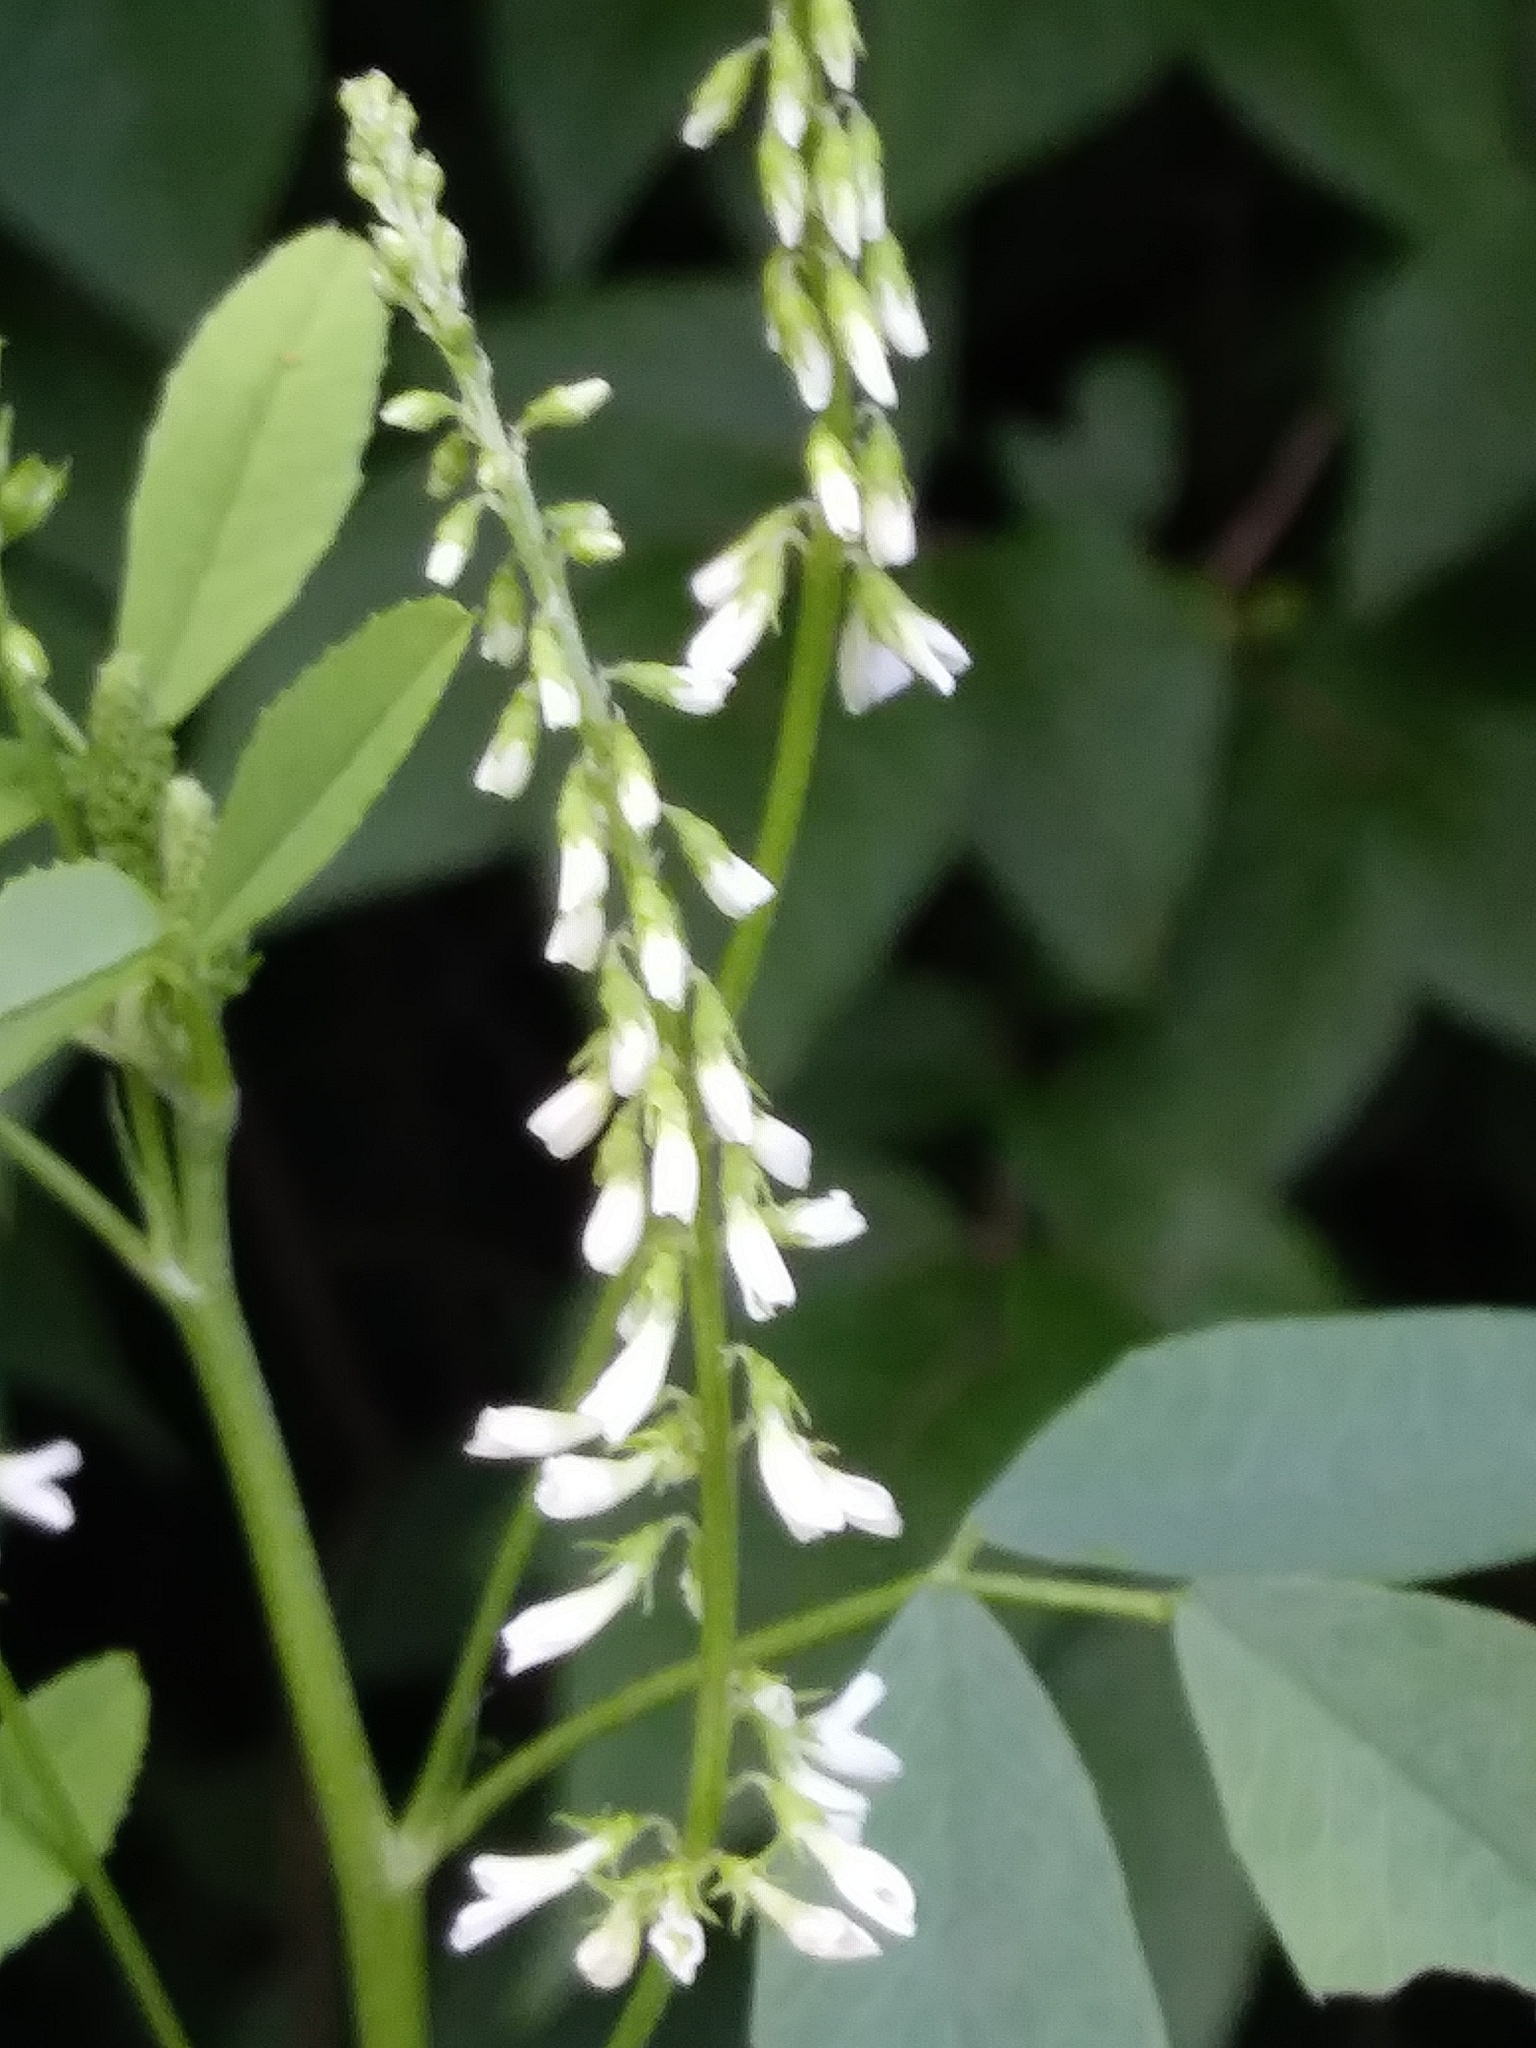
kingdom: Plantae
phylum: Tracheophyta
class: Magnoliopsida
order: Fabales
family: Fabaceae
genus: Melilotus
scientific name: Melilotus albus
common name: White melilot
